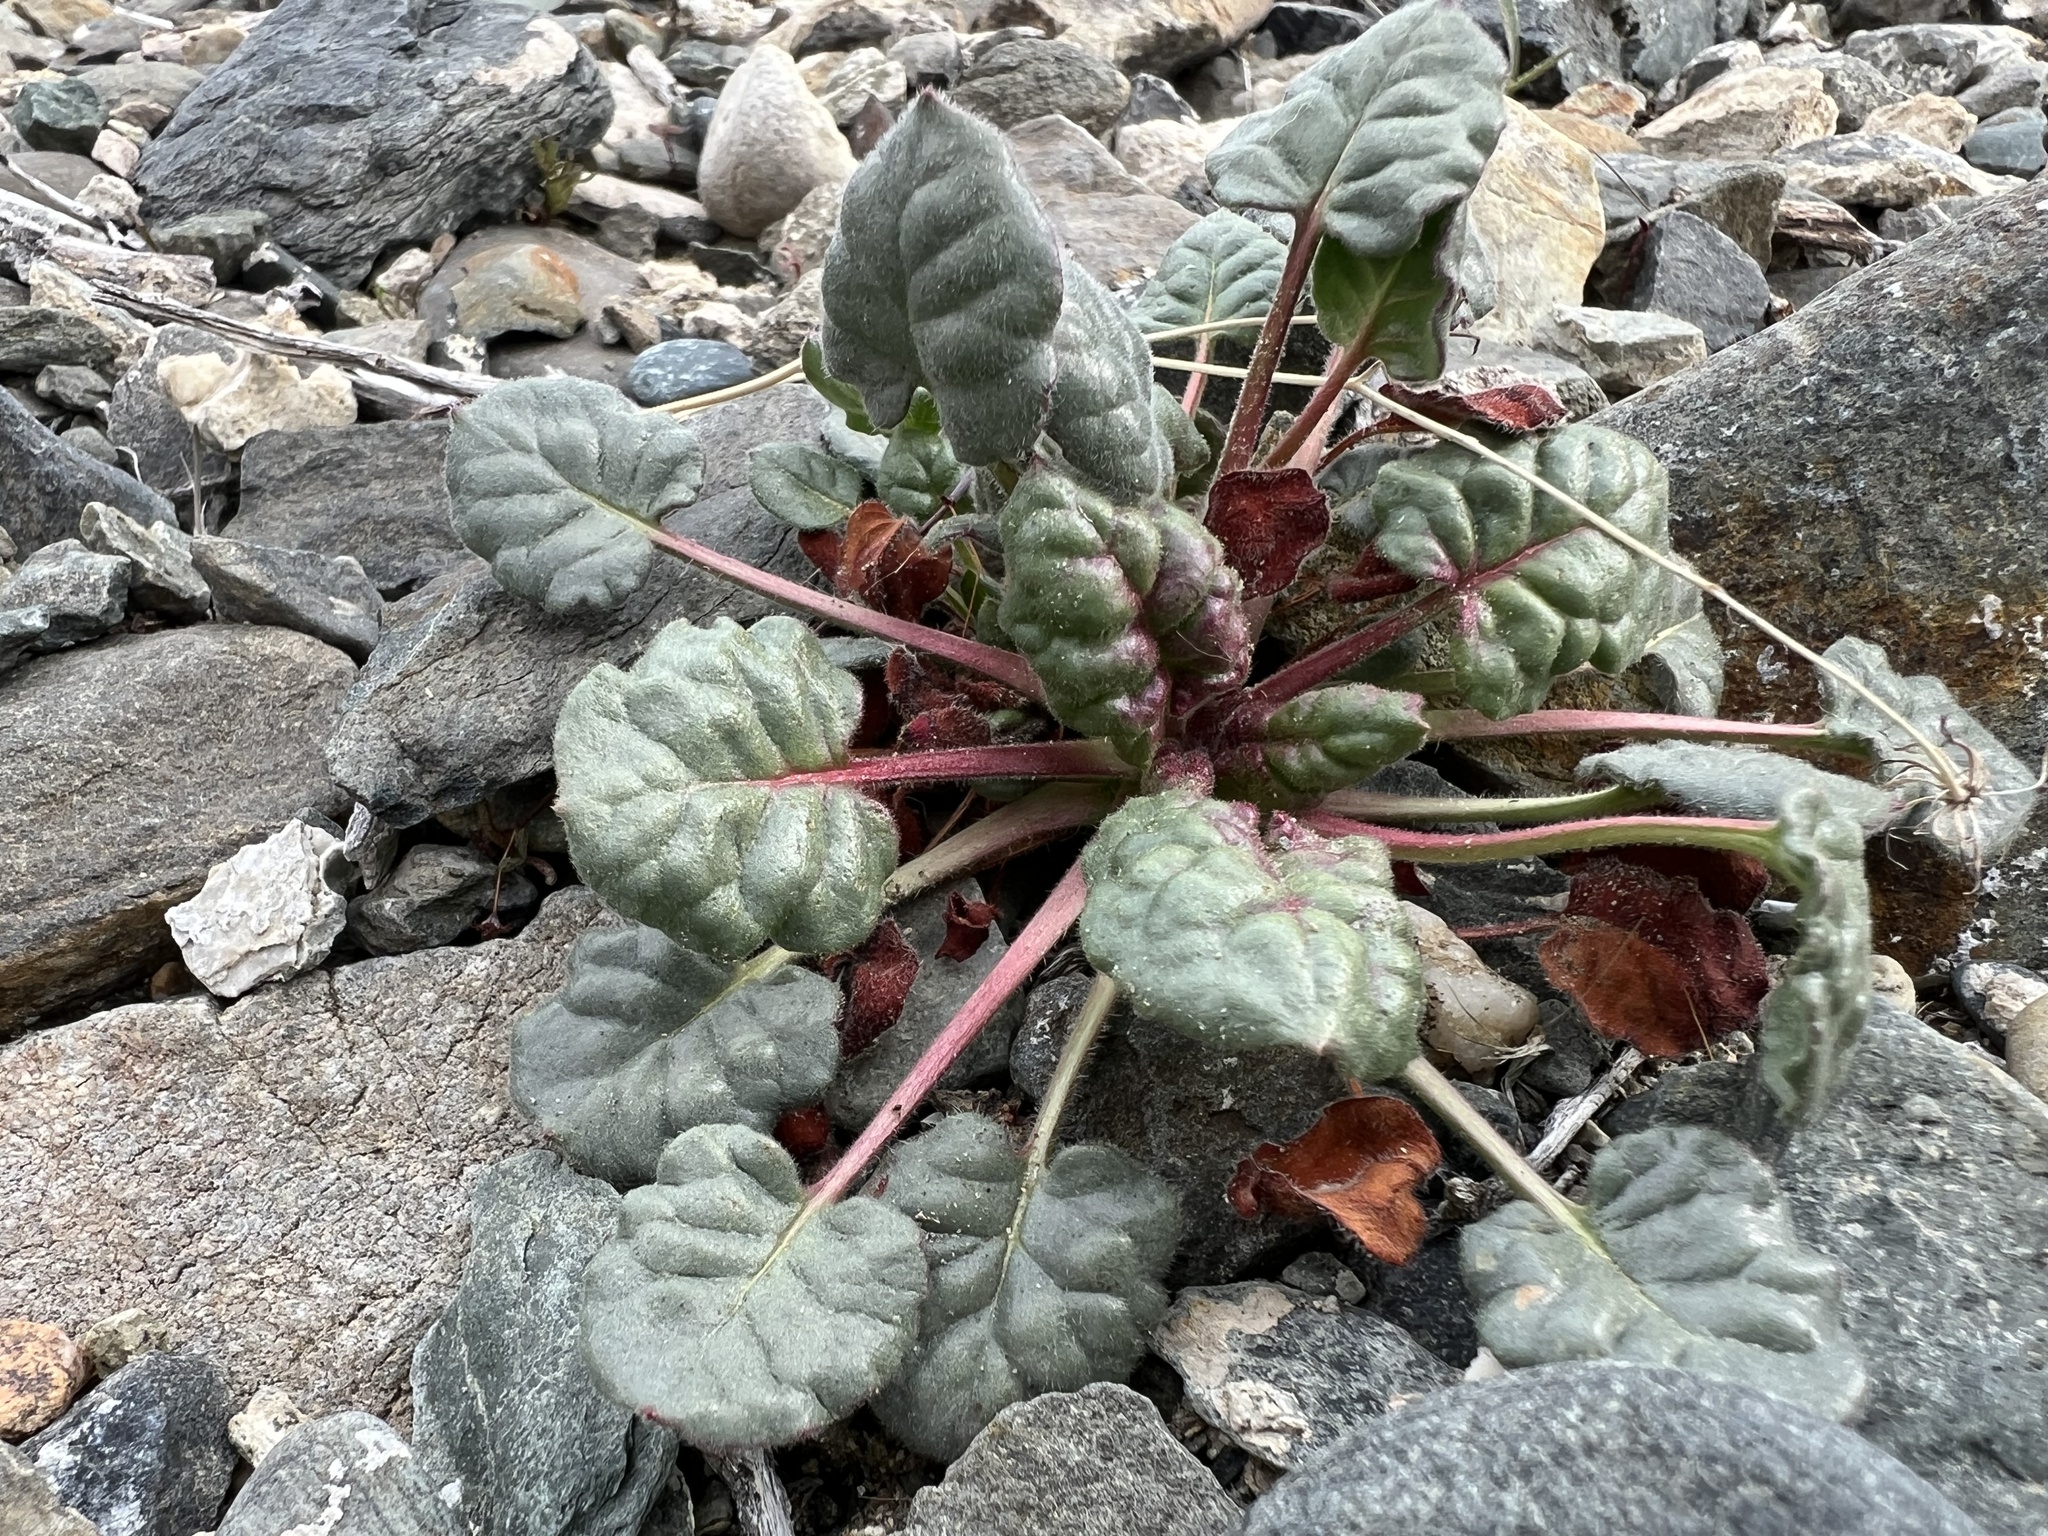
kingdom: Plantae
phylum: Tracheophyta
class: Magnoliopsida
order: Caryophyllales
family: Polygonaceae
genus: Eriogonum
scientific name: Eriogonum inflatum
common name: Desert trumpet
